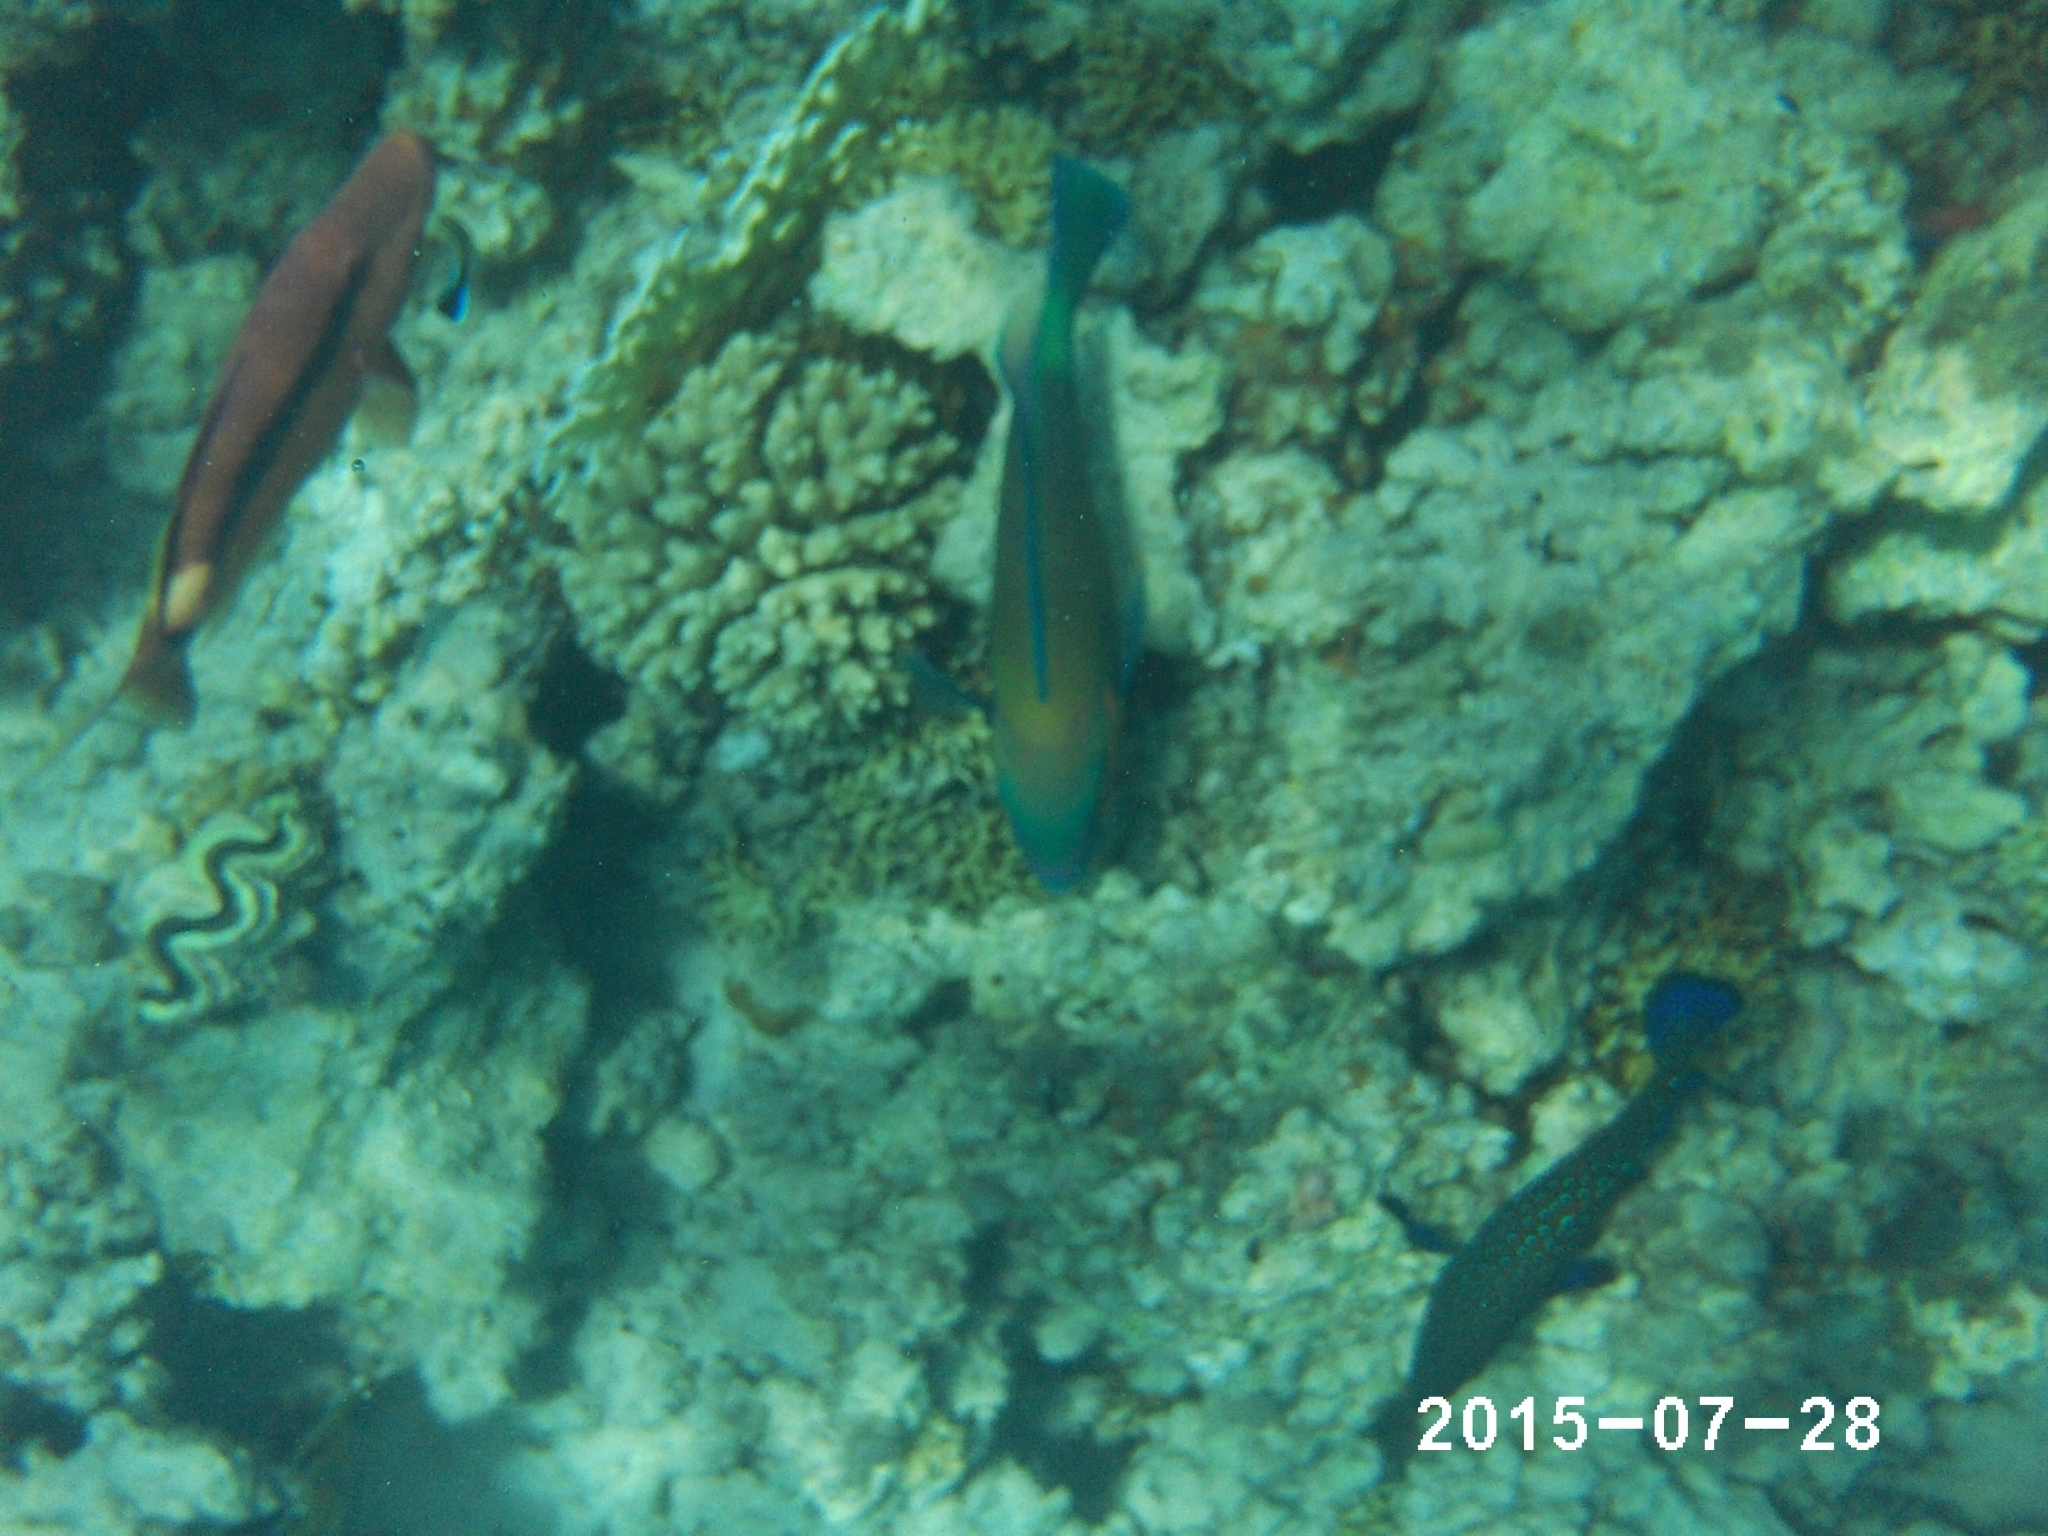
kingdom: Animalia
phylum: Chordata
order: Perciformes
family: Serranidae
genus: Cephalopholis
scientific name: Cephalopholis argus
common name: Peacock grouper
